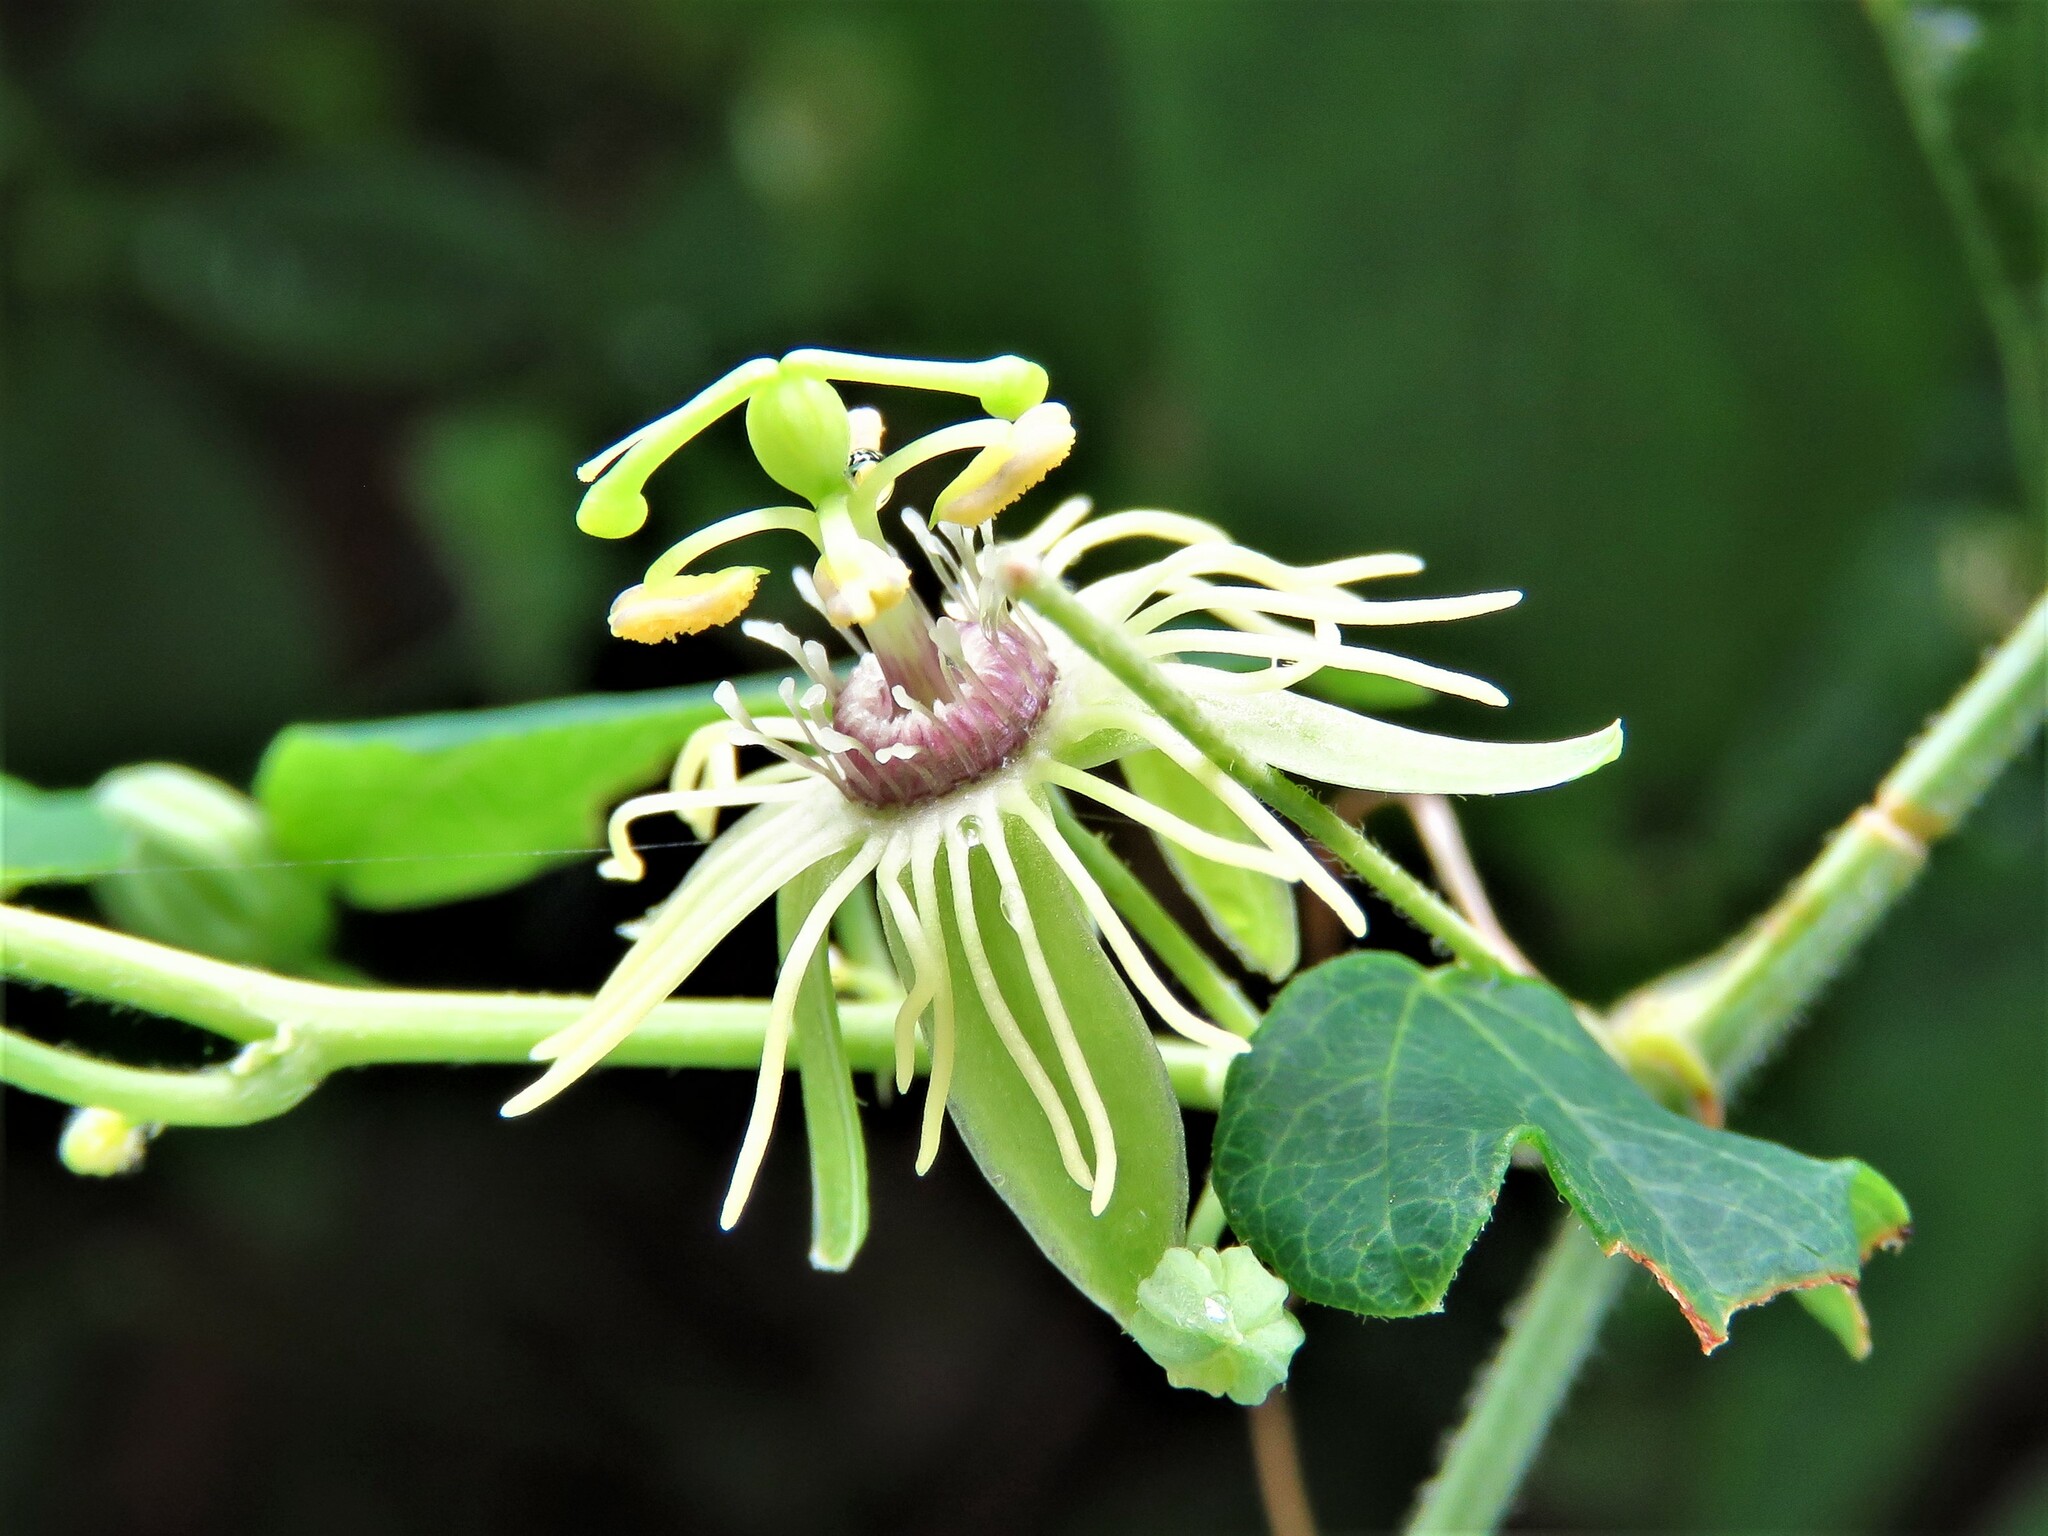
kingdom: Plantae
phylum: Tracheophyta
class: Magnoliopsida
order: Malpighiales
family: Passifloraceae
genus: Passiflora
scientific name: Passiflora lutea
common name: Yellow passionflower
